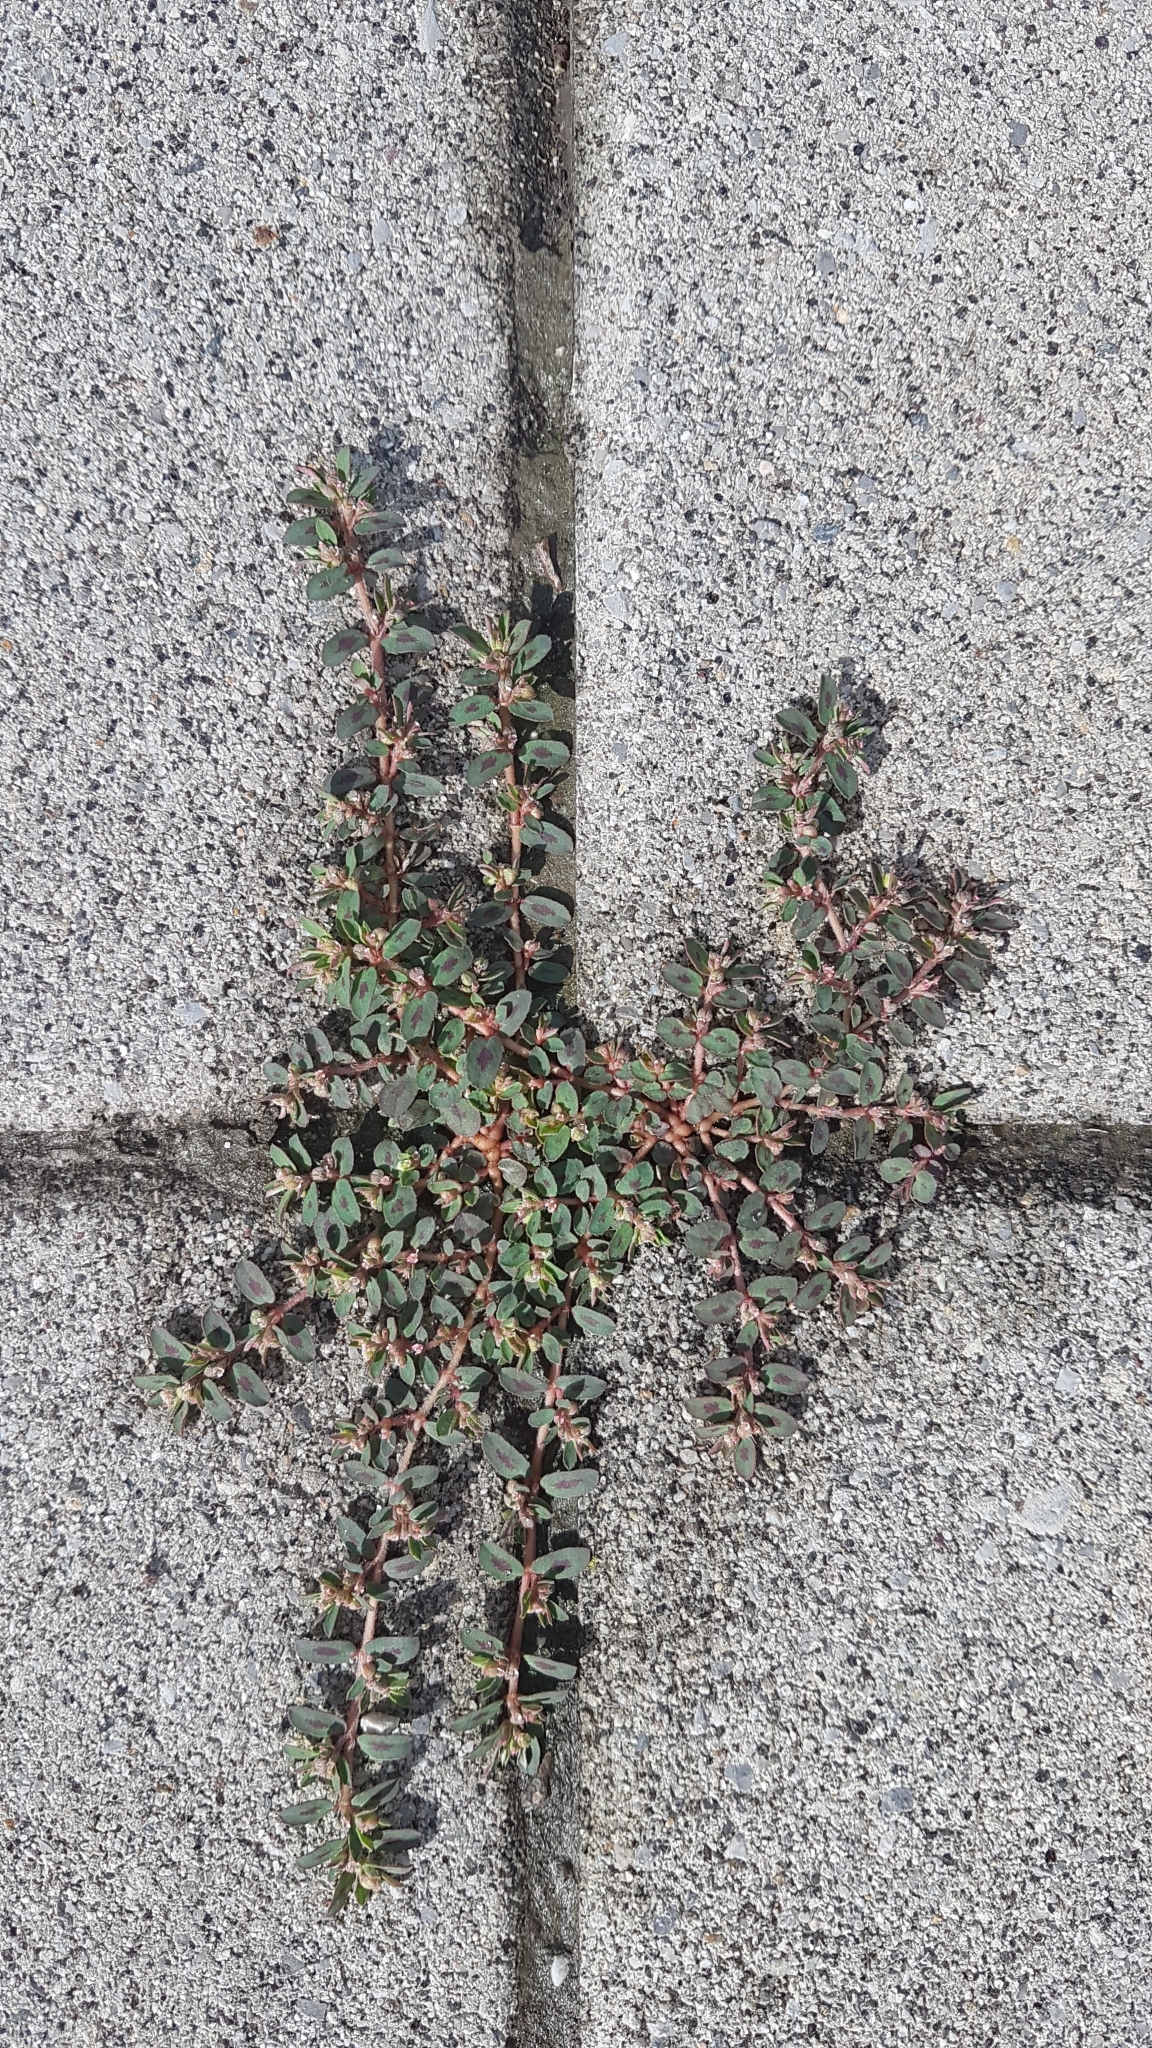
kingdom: Plantae
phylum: Tracheophyta
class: Magnoliopsida
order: Malpighiales
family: Euphorbiaceae
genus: Euphorbia
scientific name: Euphorbia maculata
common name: Spotted spurge
